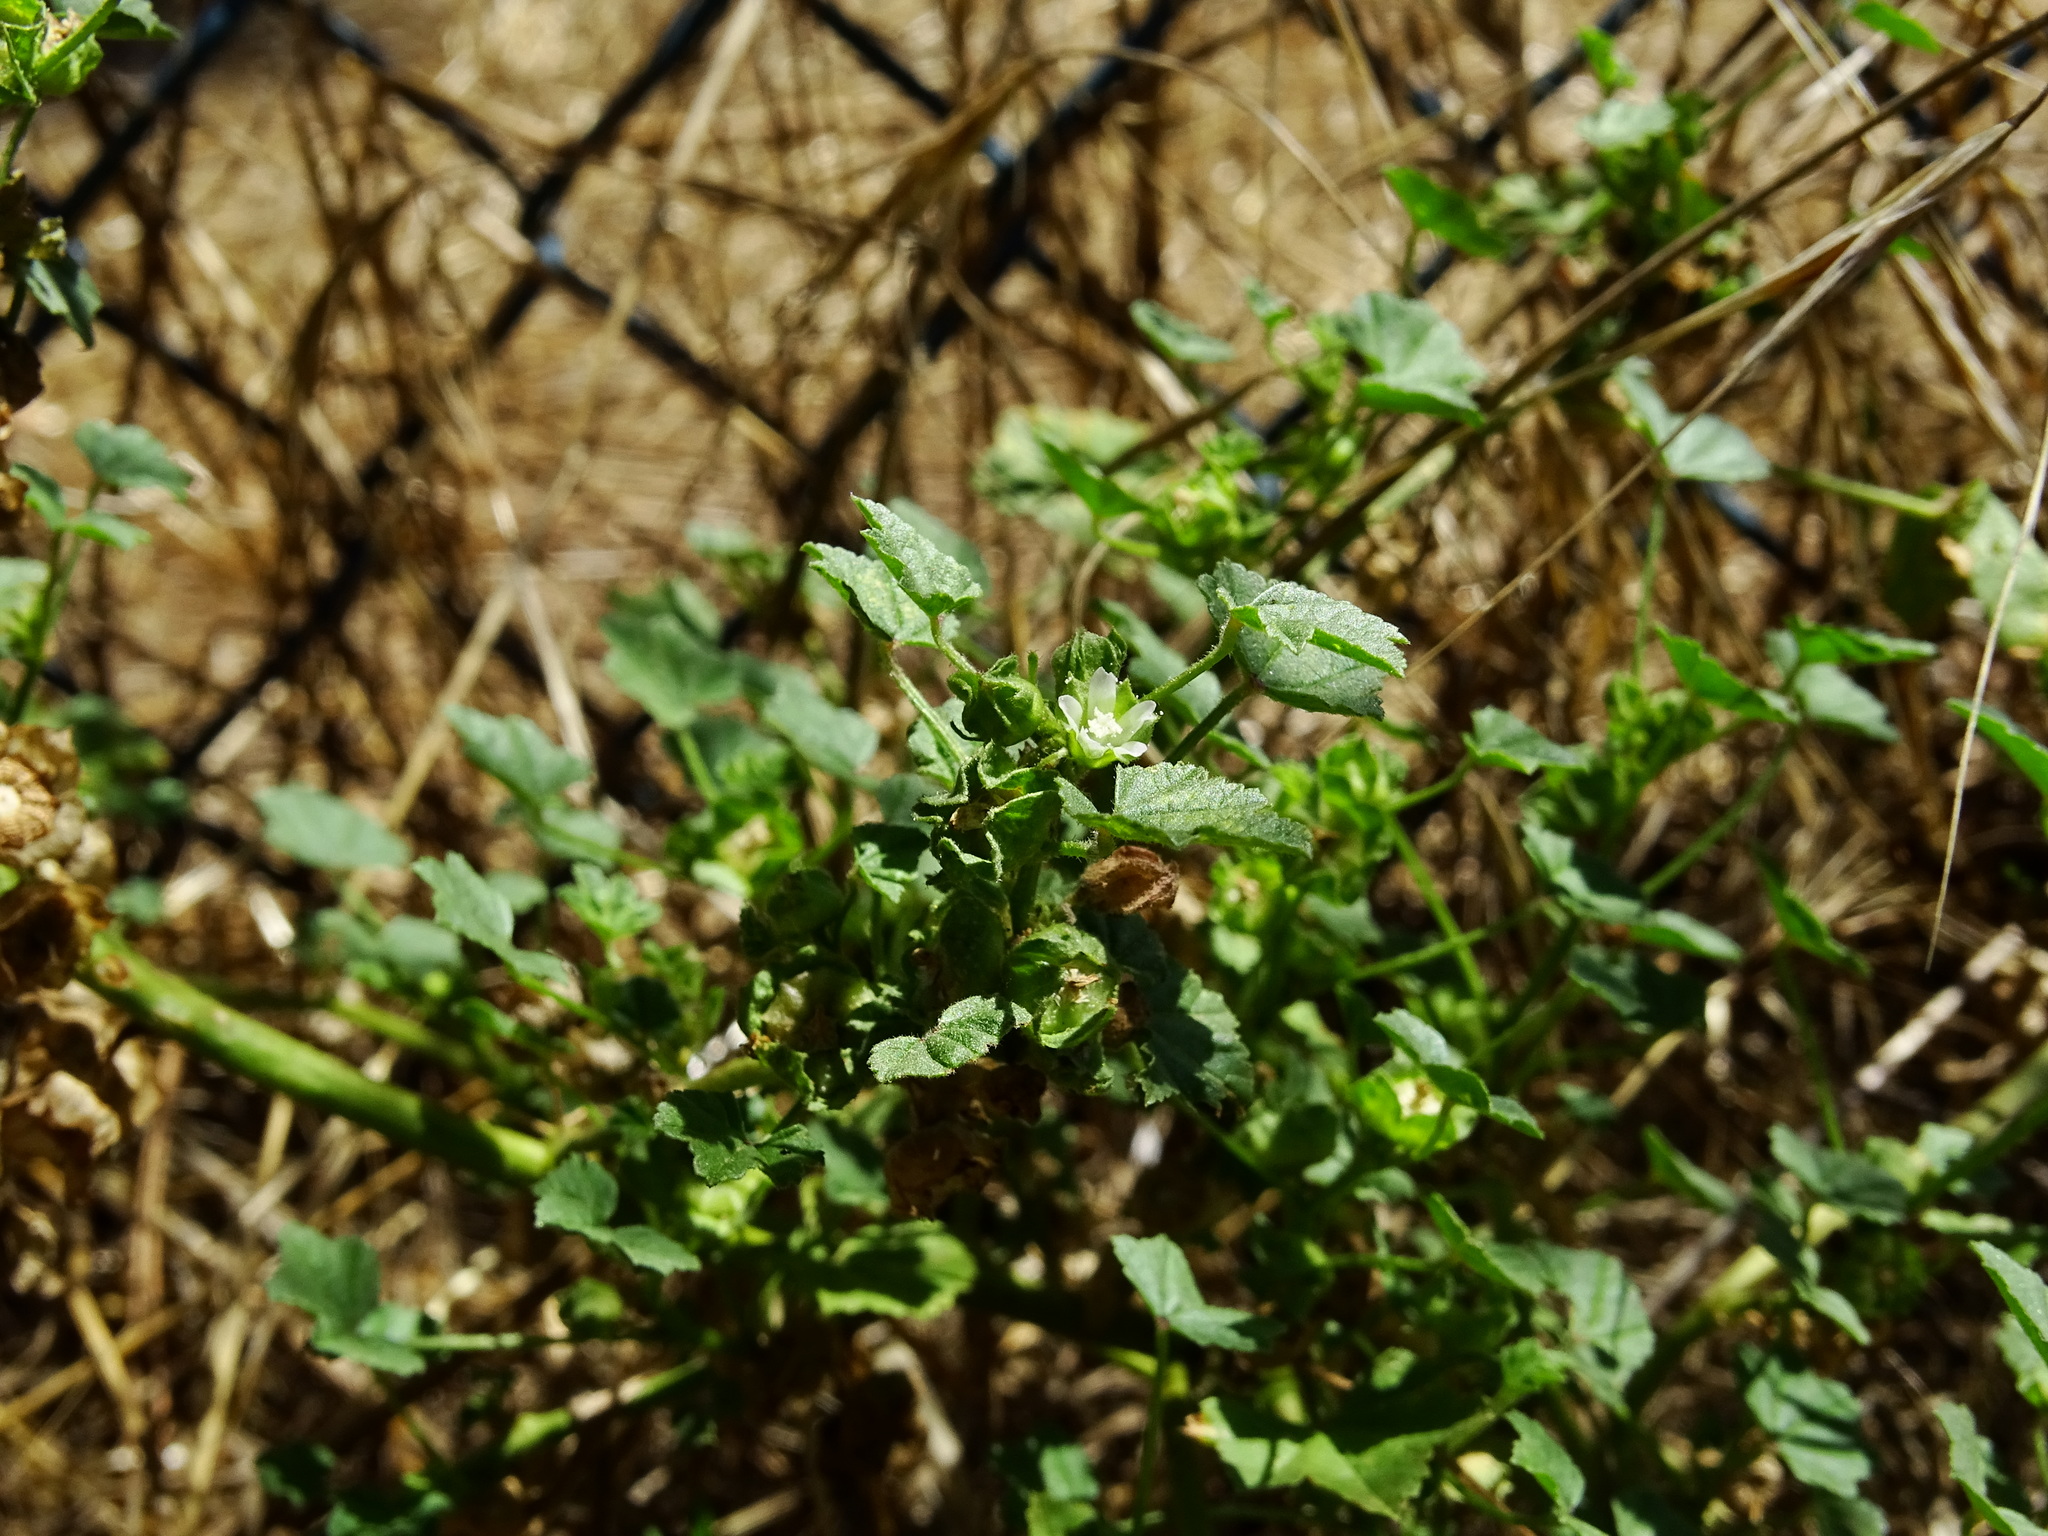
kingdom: Plantae
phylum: Tracheophyta
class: Magnoliopsida
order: Malvales
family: Malvaceae
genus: Malva
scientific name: Malva parviflora
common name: Least mallow
